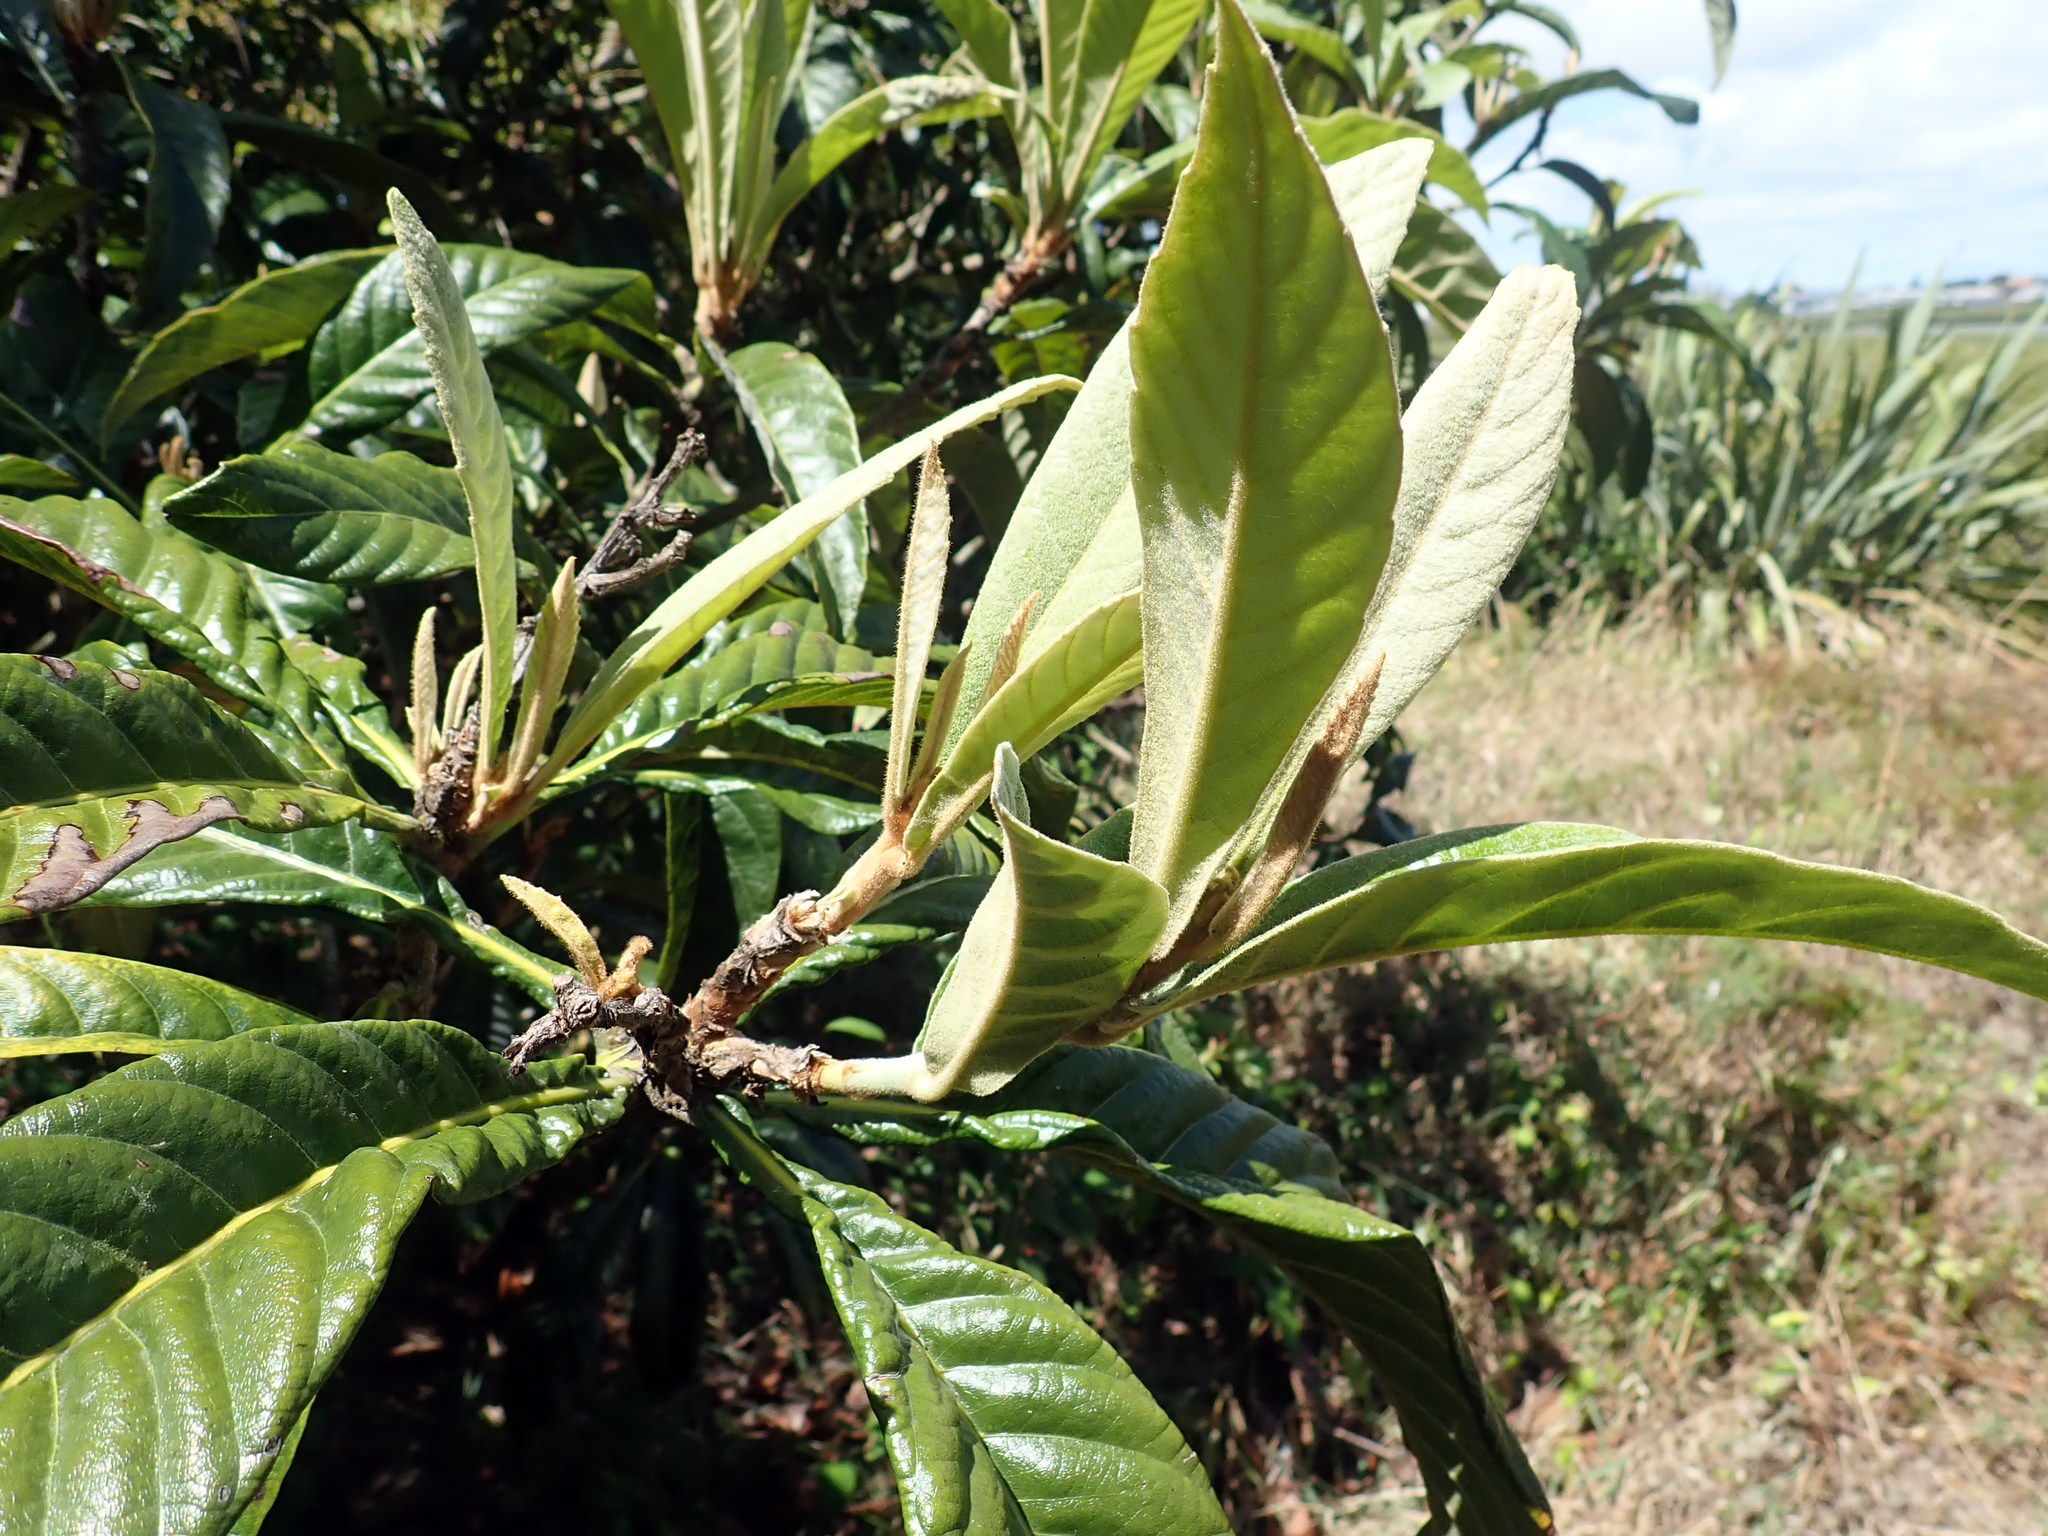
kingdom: Plantae
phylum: Tracheophyta
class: Magnoliopsida
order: Rosales
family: Rosaceae
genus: Rhaphiolepis
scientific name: Rhaphiolepis bibas
